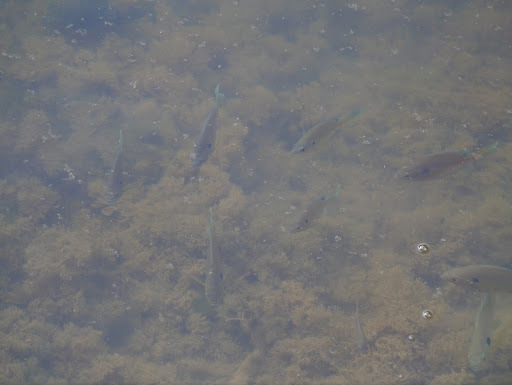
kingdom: Animalia
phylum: Chordata
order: Perciformes
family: Centrarchidae
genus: Lepomis
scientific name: Lepomis macrochirus
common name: Bluegill
